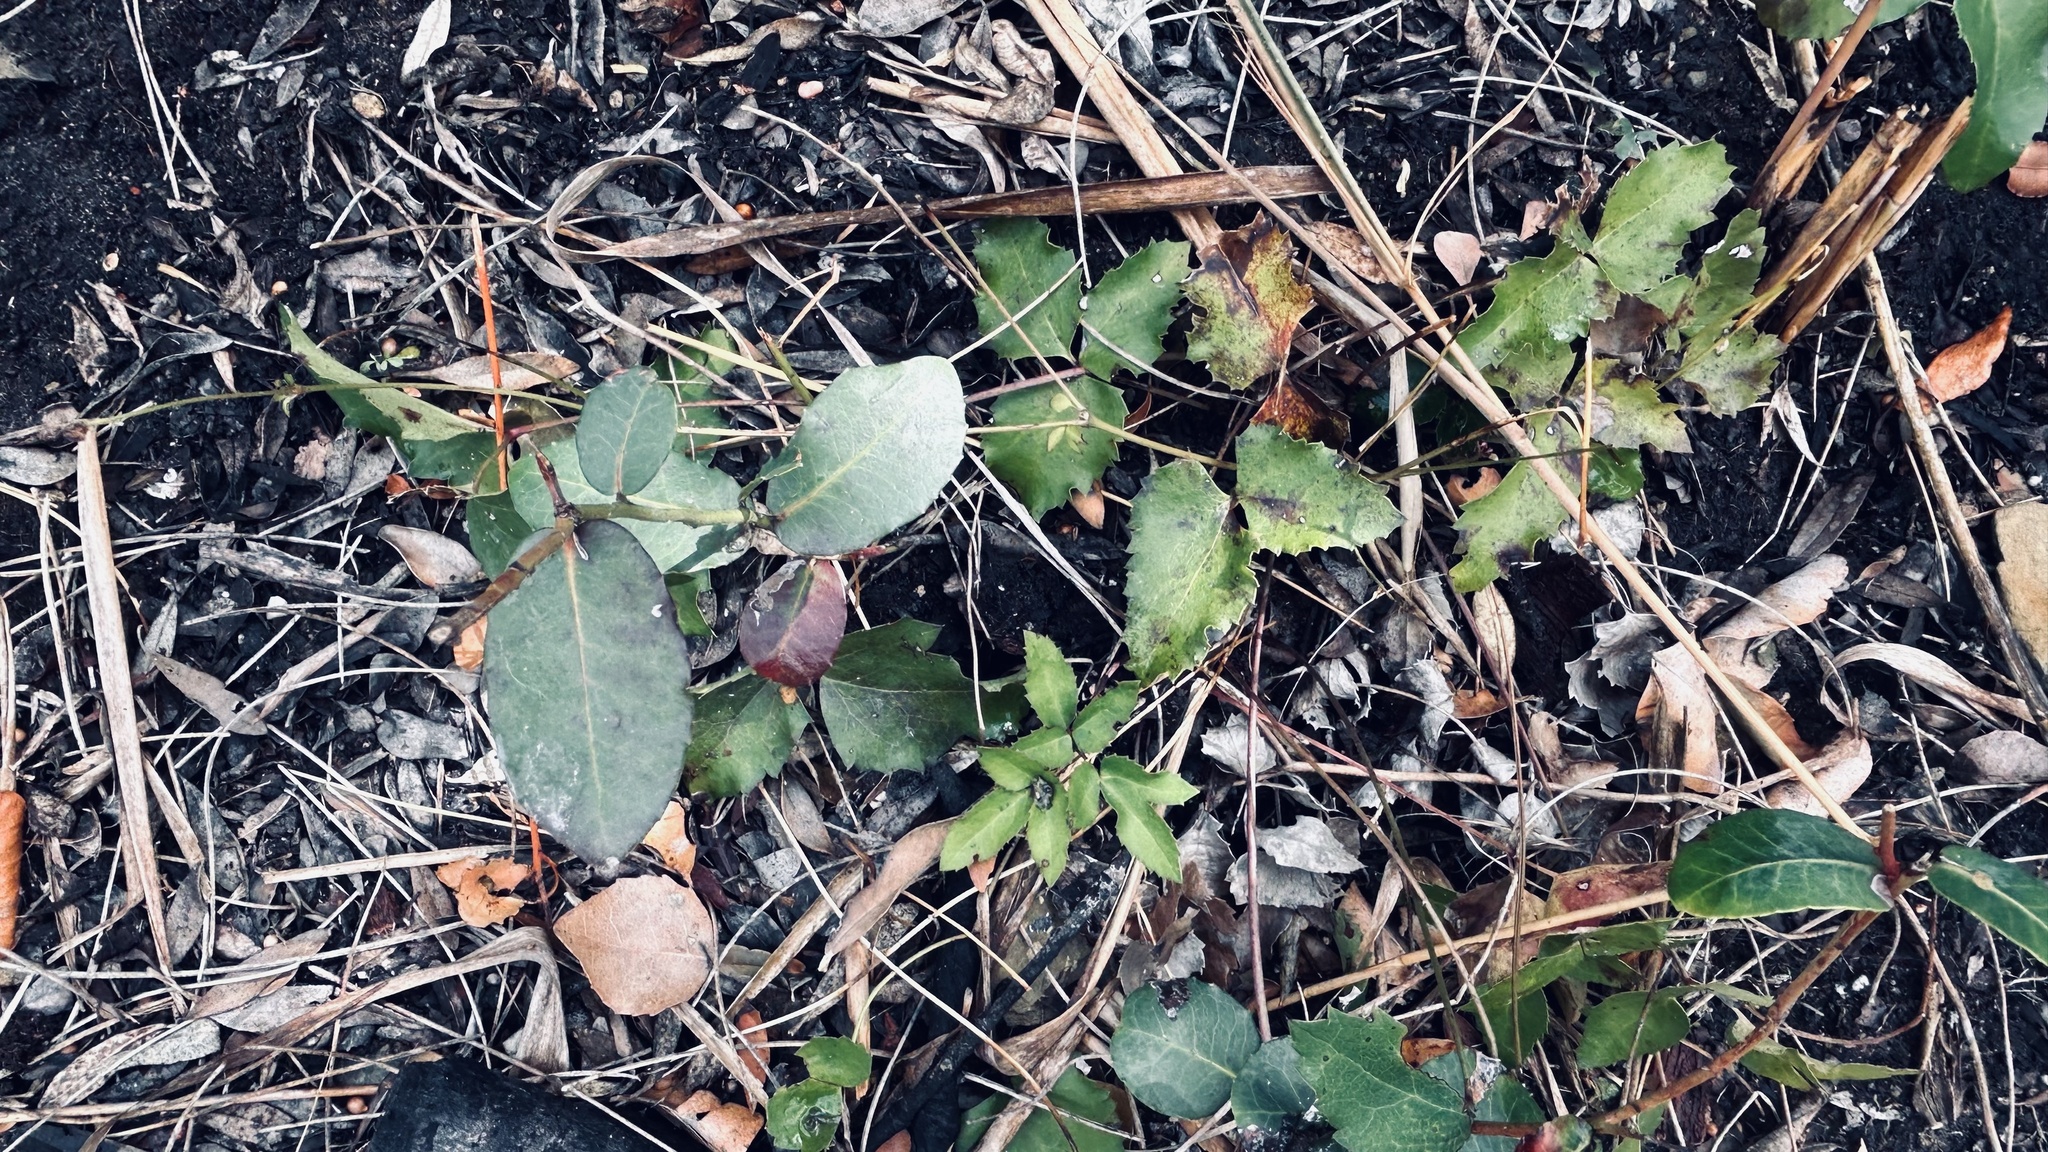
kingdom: Plantae
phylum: Tracheophyta
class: Magnoliopsida
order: Ranunculales
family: Ranunculaceae
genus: Knowltonia
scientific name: Knowltonia vesicatoria
